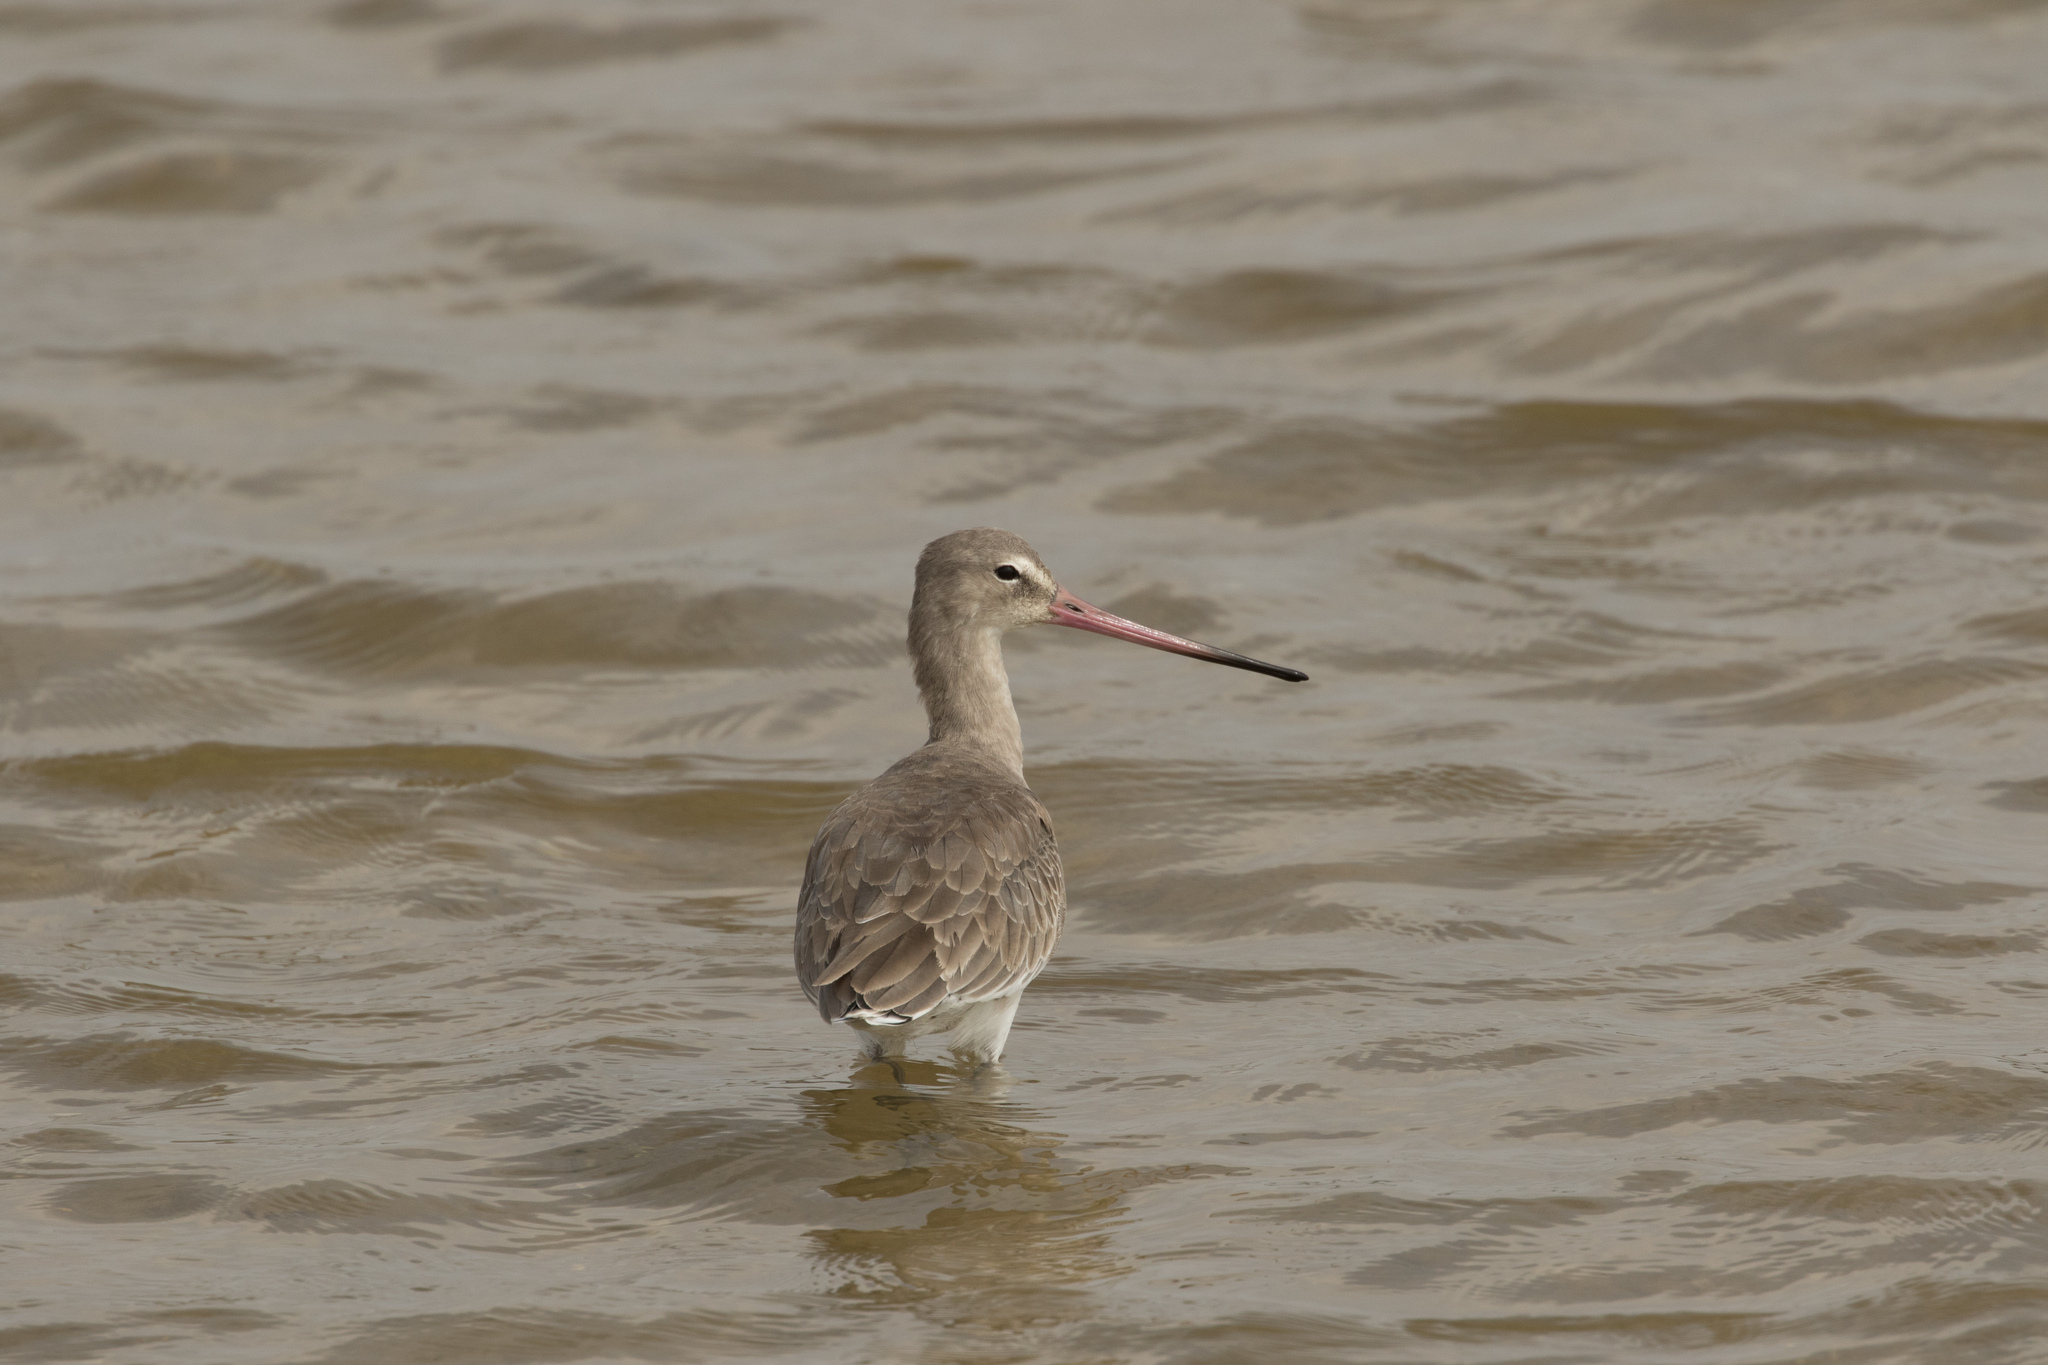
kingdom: Animalia
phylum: Chordata
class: Aves
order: Charadriiformes
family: Scolopacidae
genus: Limosa
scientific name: Limosa limosa
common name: Black-tailed godwit
